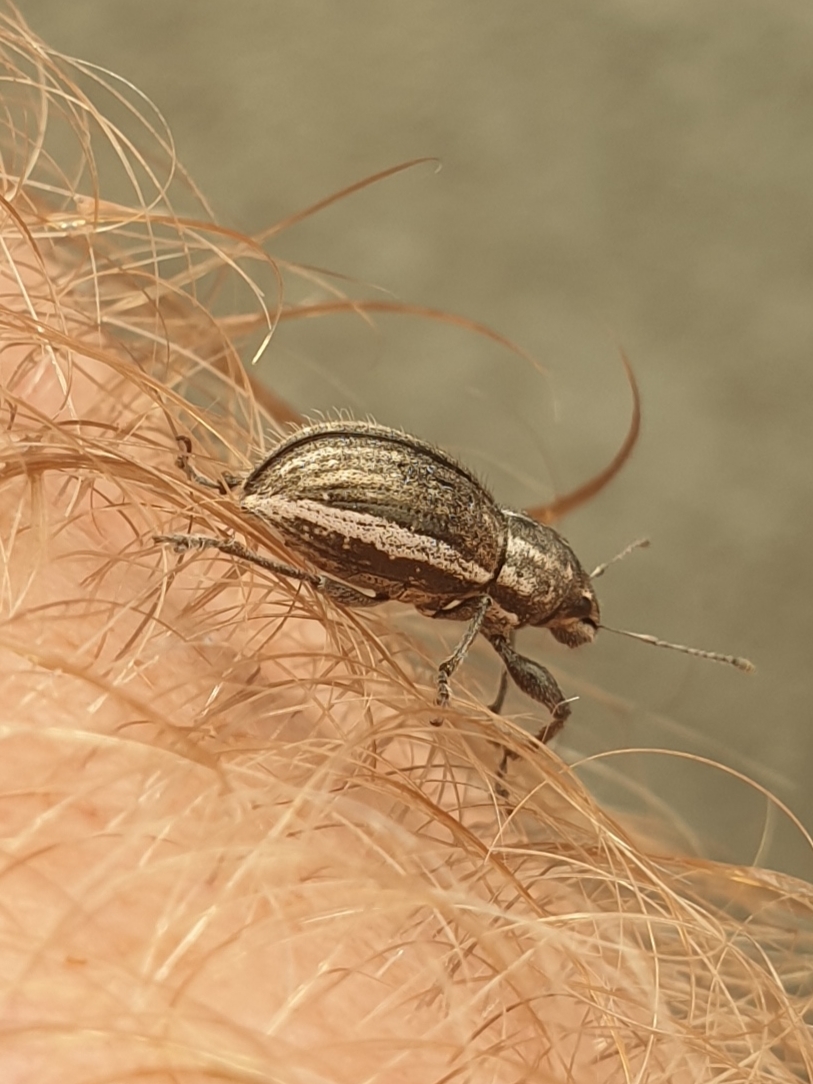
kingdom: Animalia
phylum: Arthropoda
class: Insecta
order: Coleoptera
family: Curculionidae
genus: Naupactus
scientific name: Naupactus leucoloma
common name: Whitefringed beetle
